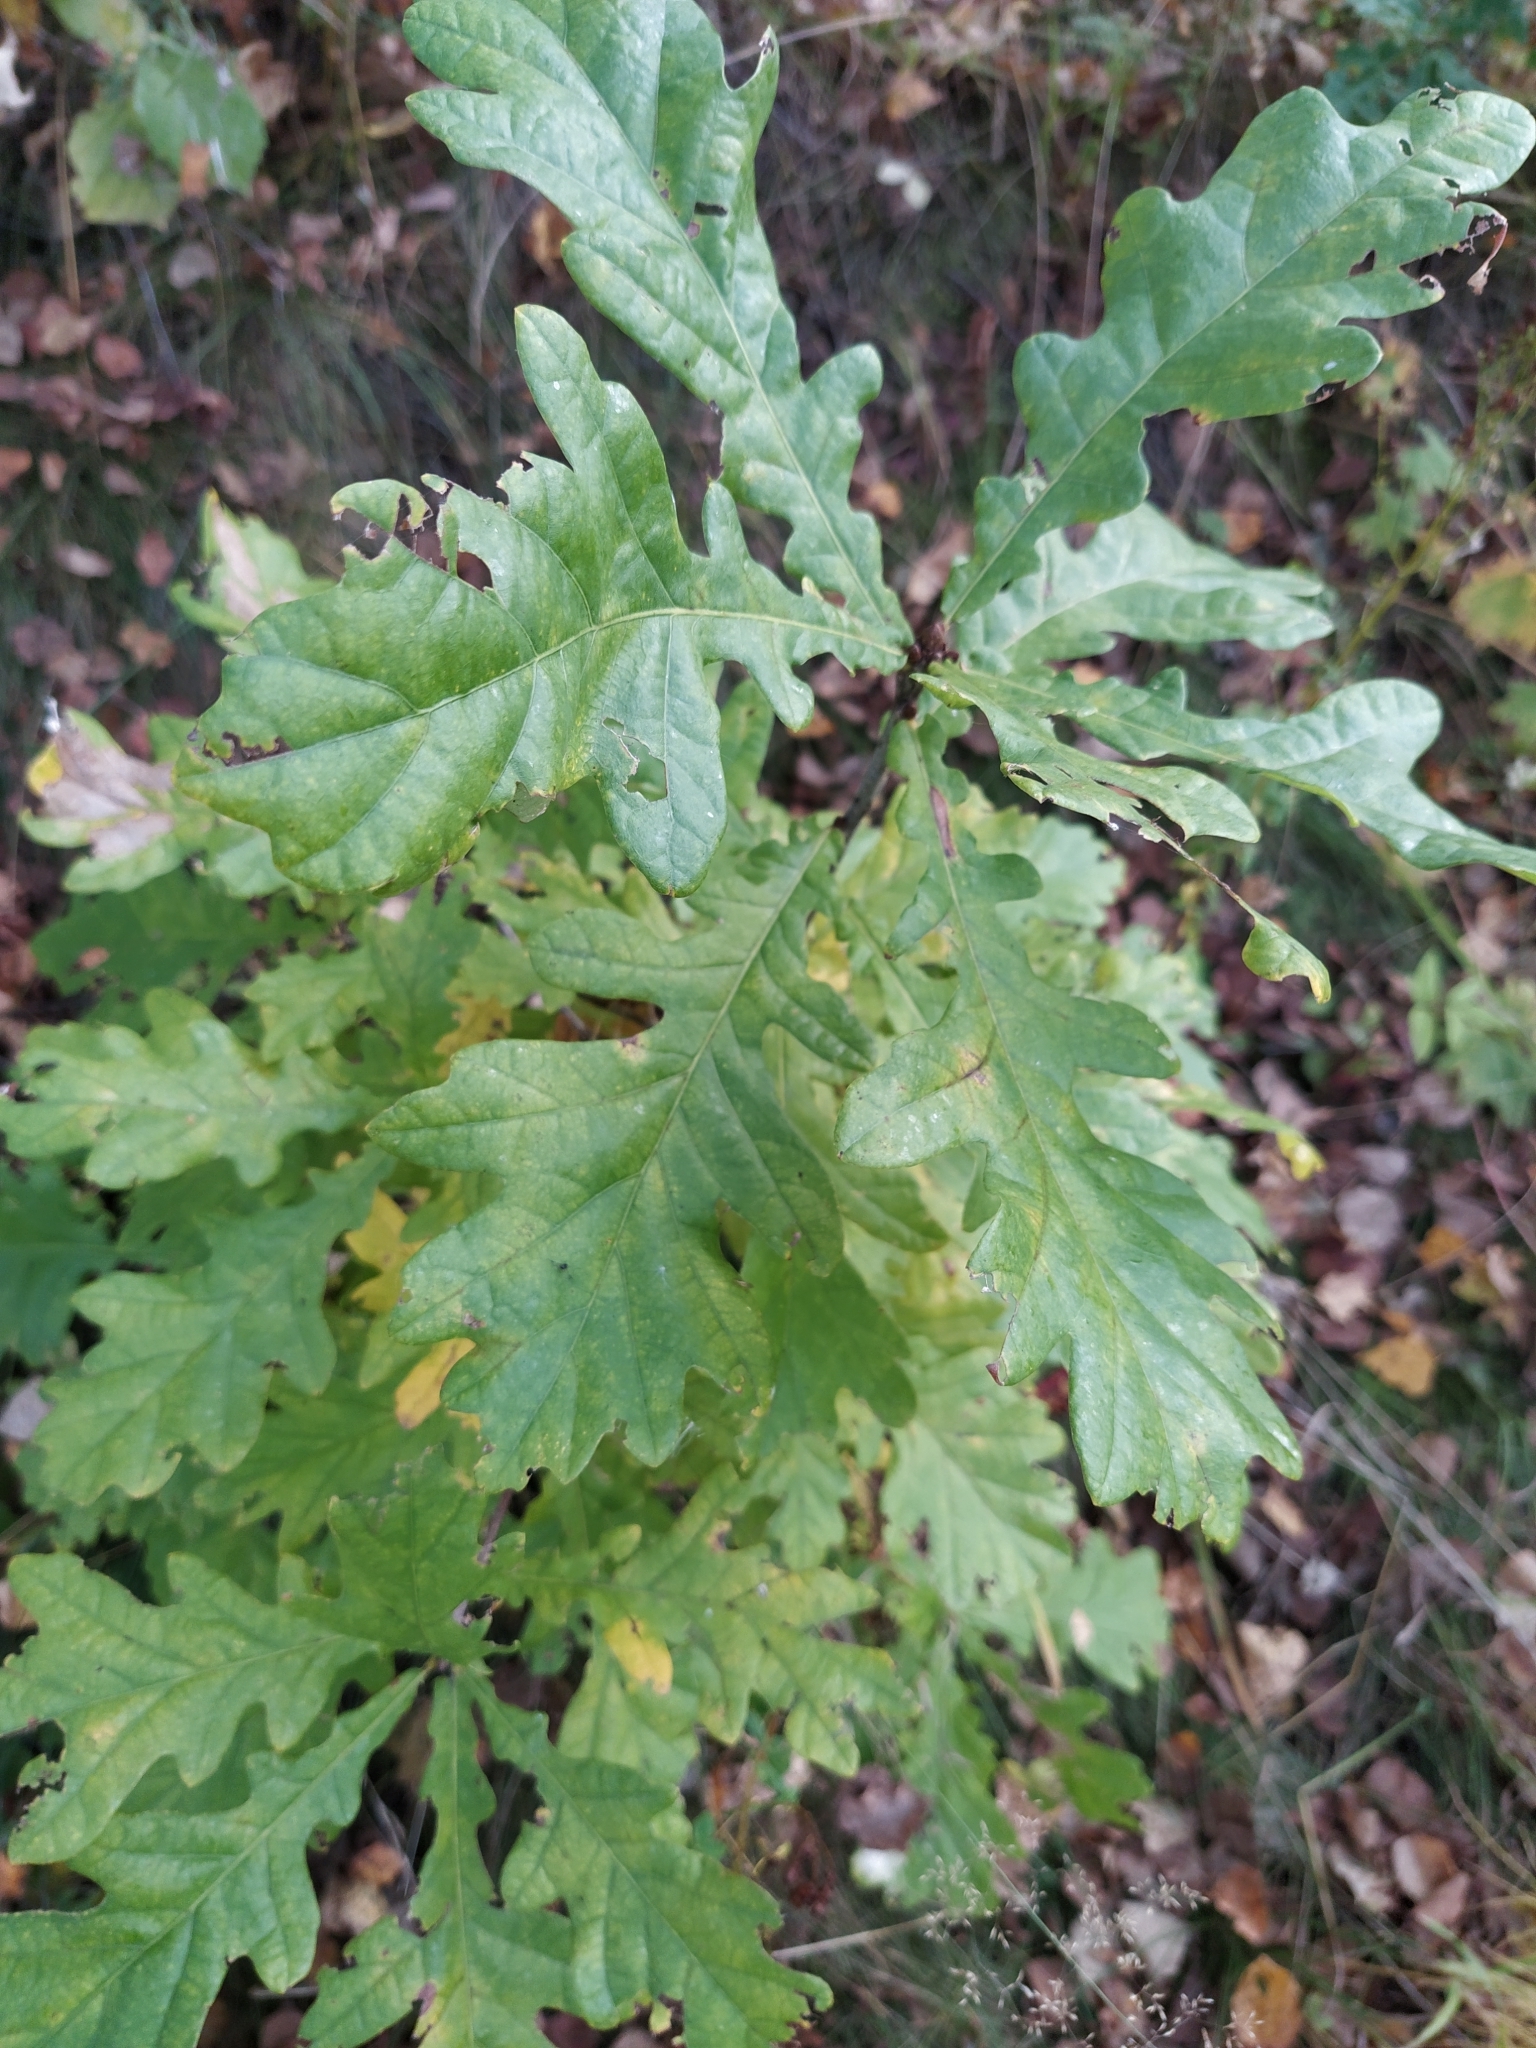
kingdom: Plantae
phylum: Tracheophyta
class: Magnoliopsida
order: Fagales
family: Fagaceae
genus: Quercus
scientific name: Quercus robur
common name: Pedunculate oak
